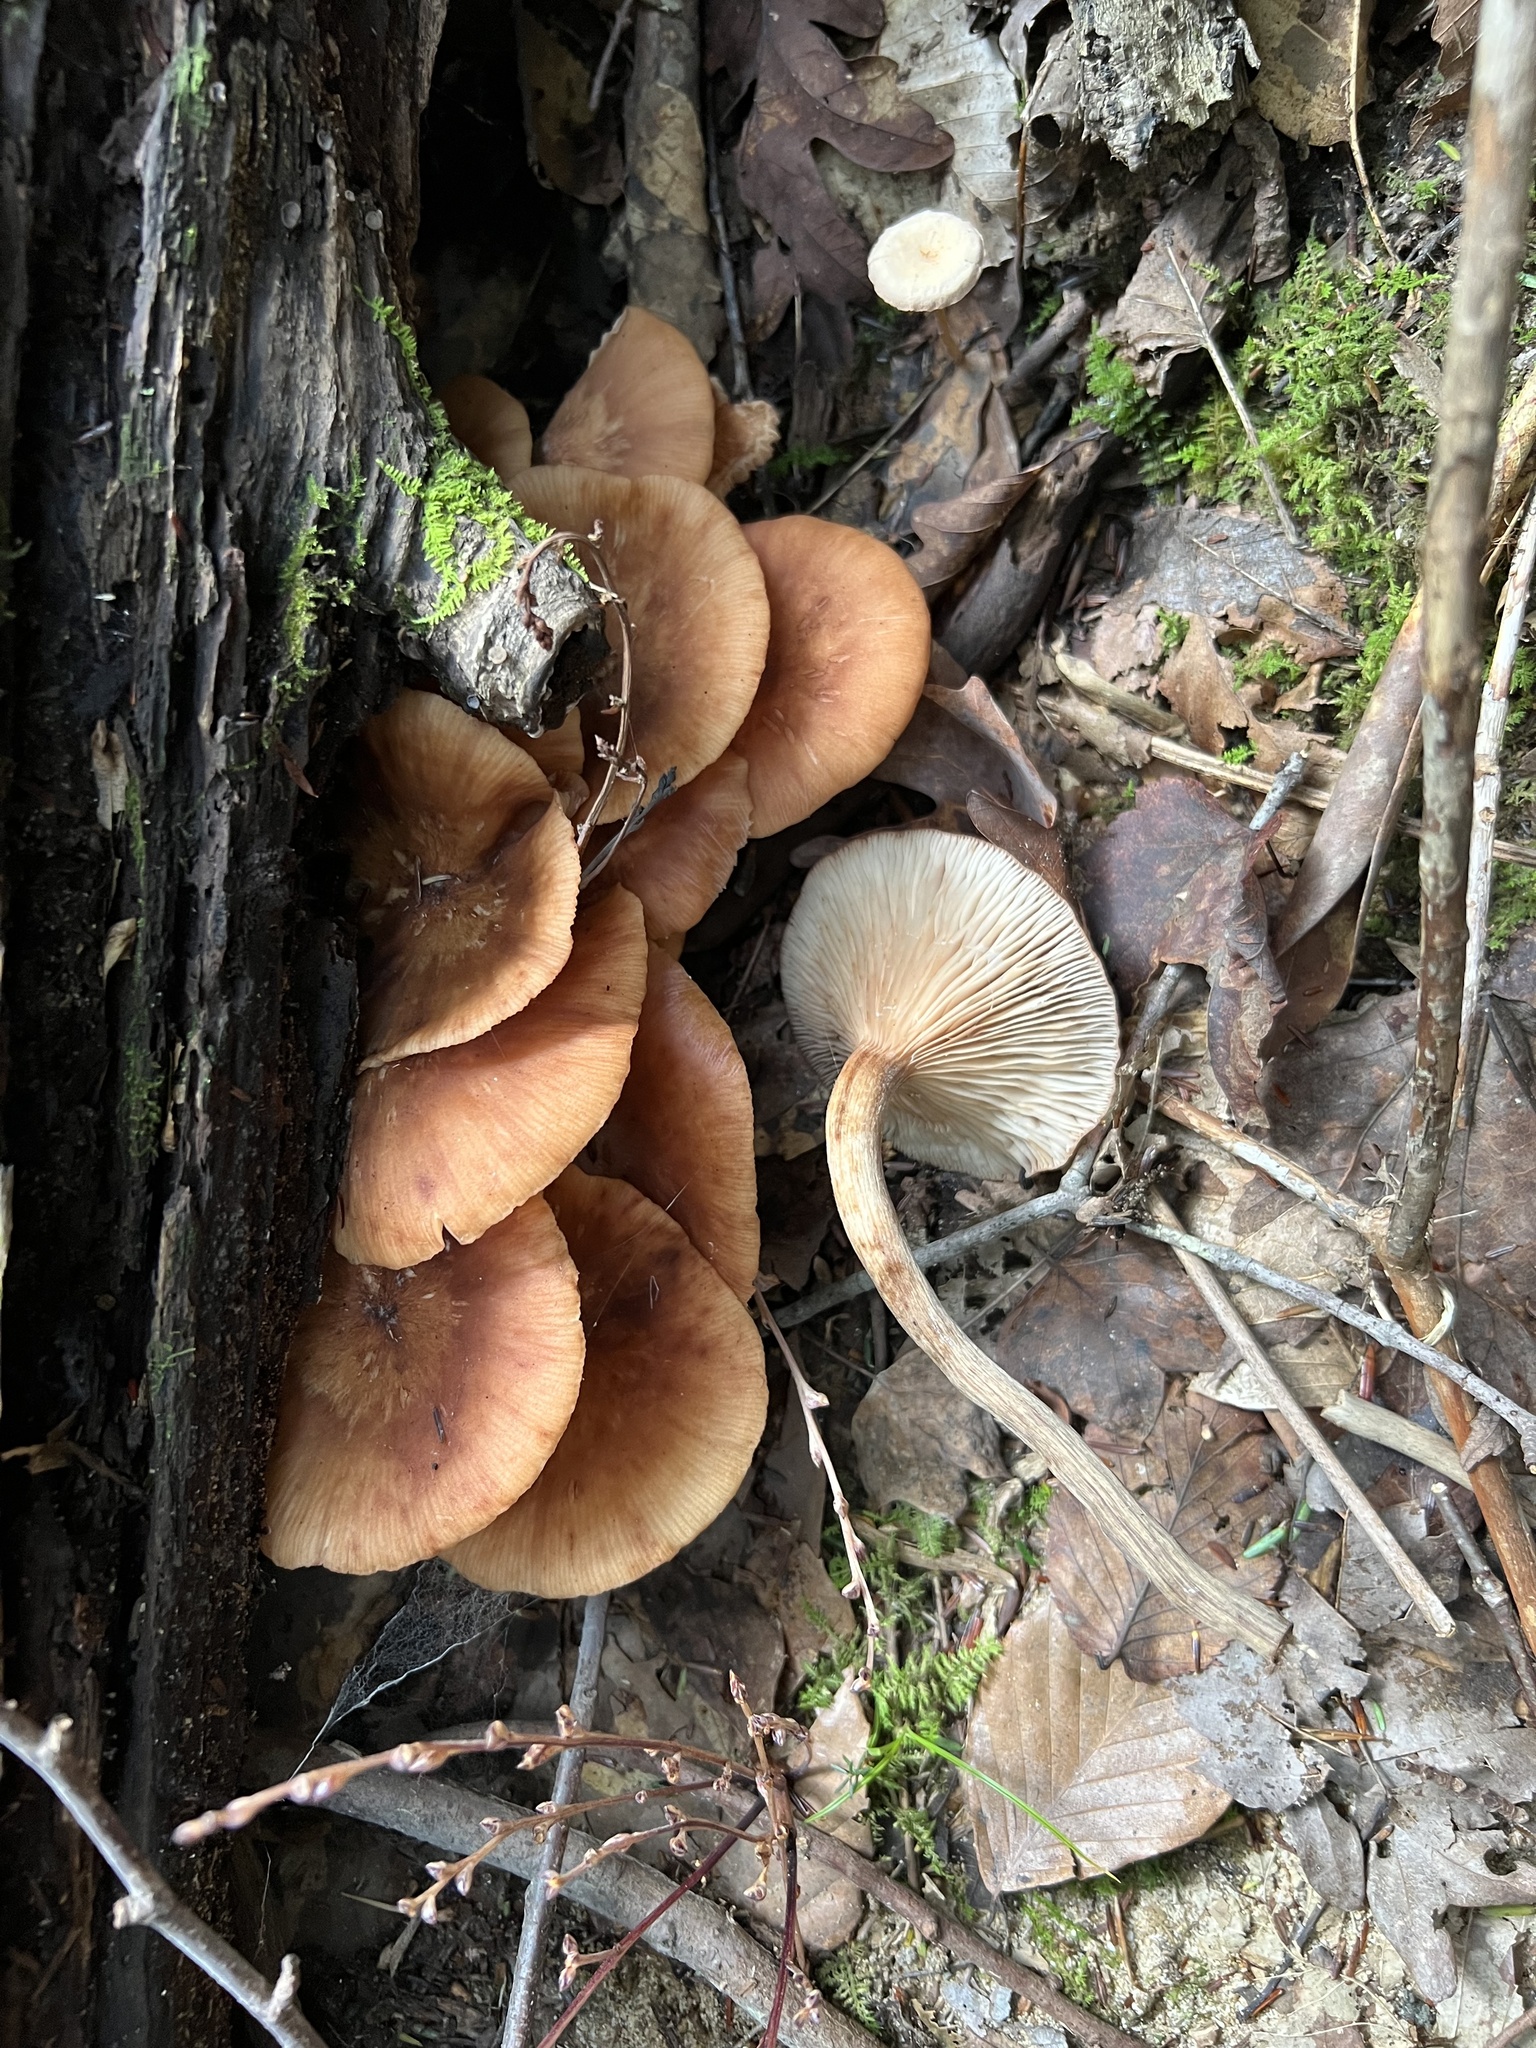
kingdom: Fungi
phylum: Basidiomycota
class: Agaricomycetes
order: Agaricales
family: Physalacriaceae
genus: Desarmillaria
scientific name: Desarmillaria caespitosa
